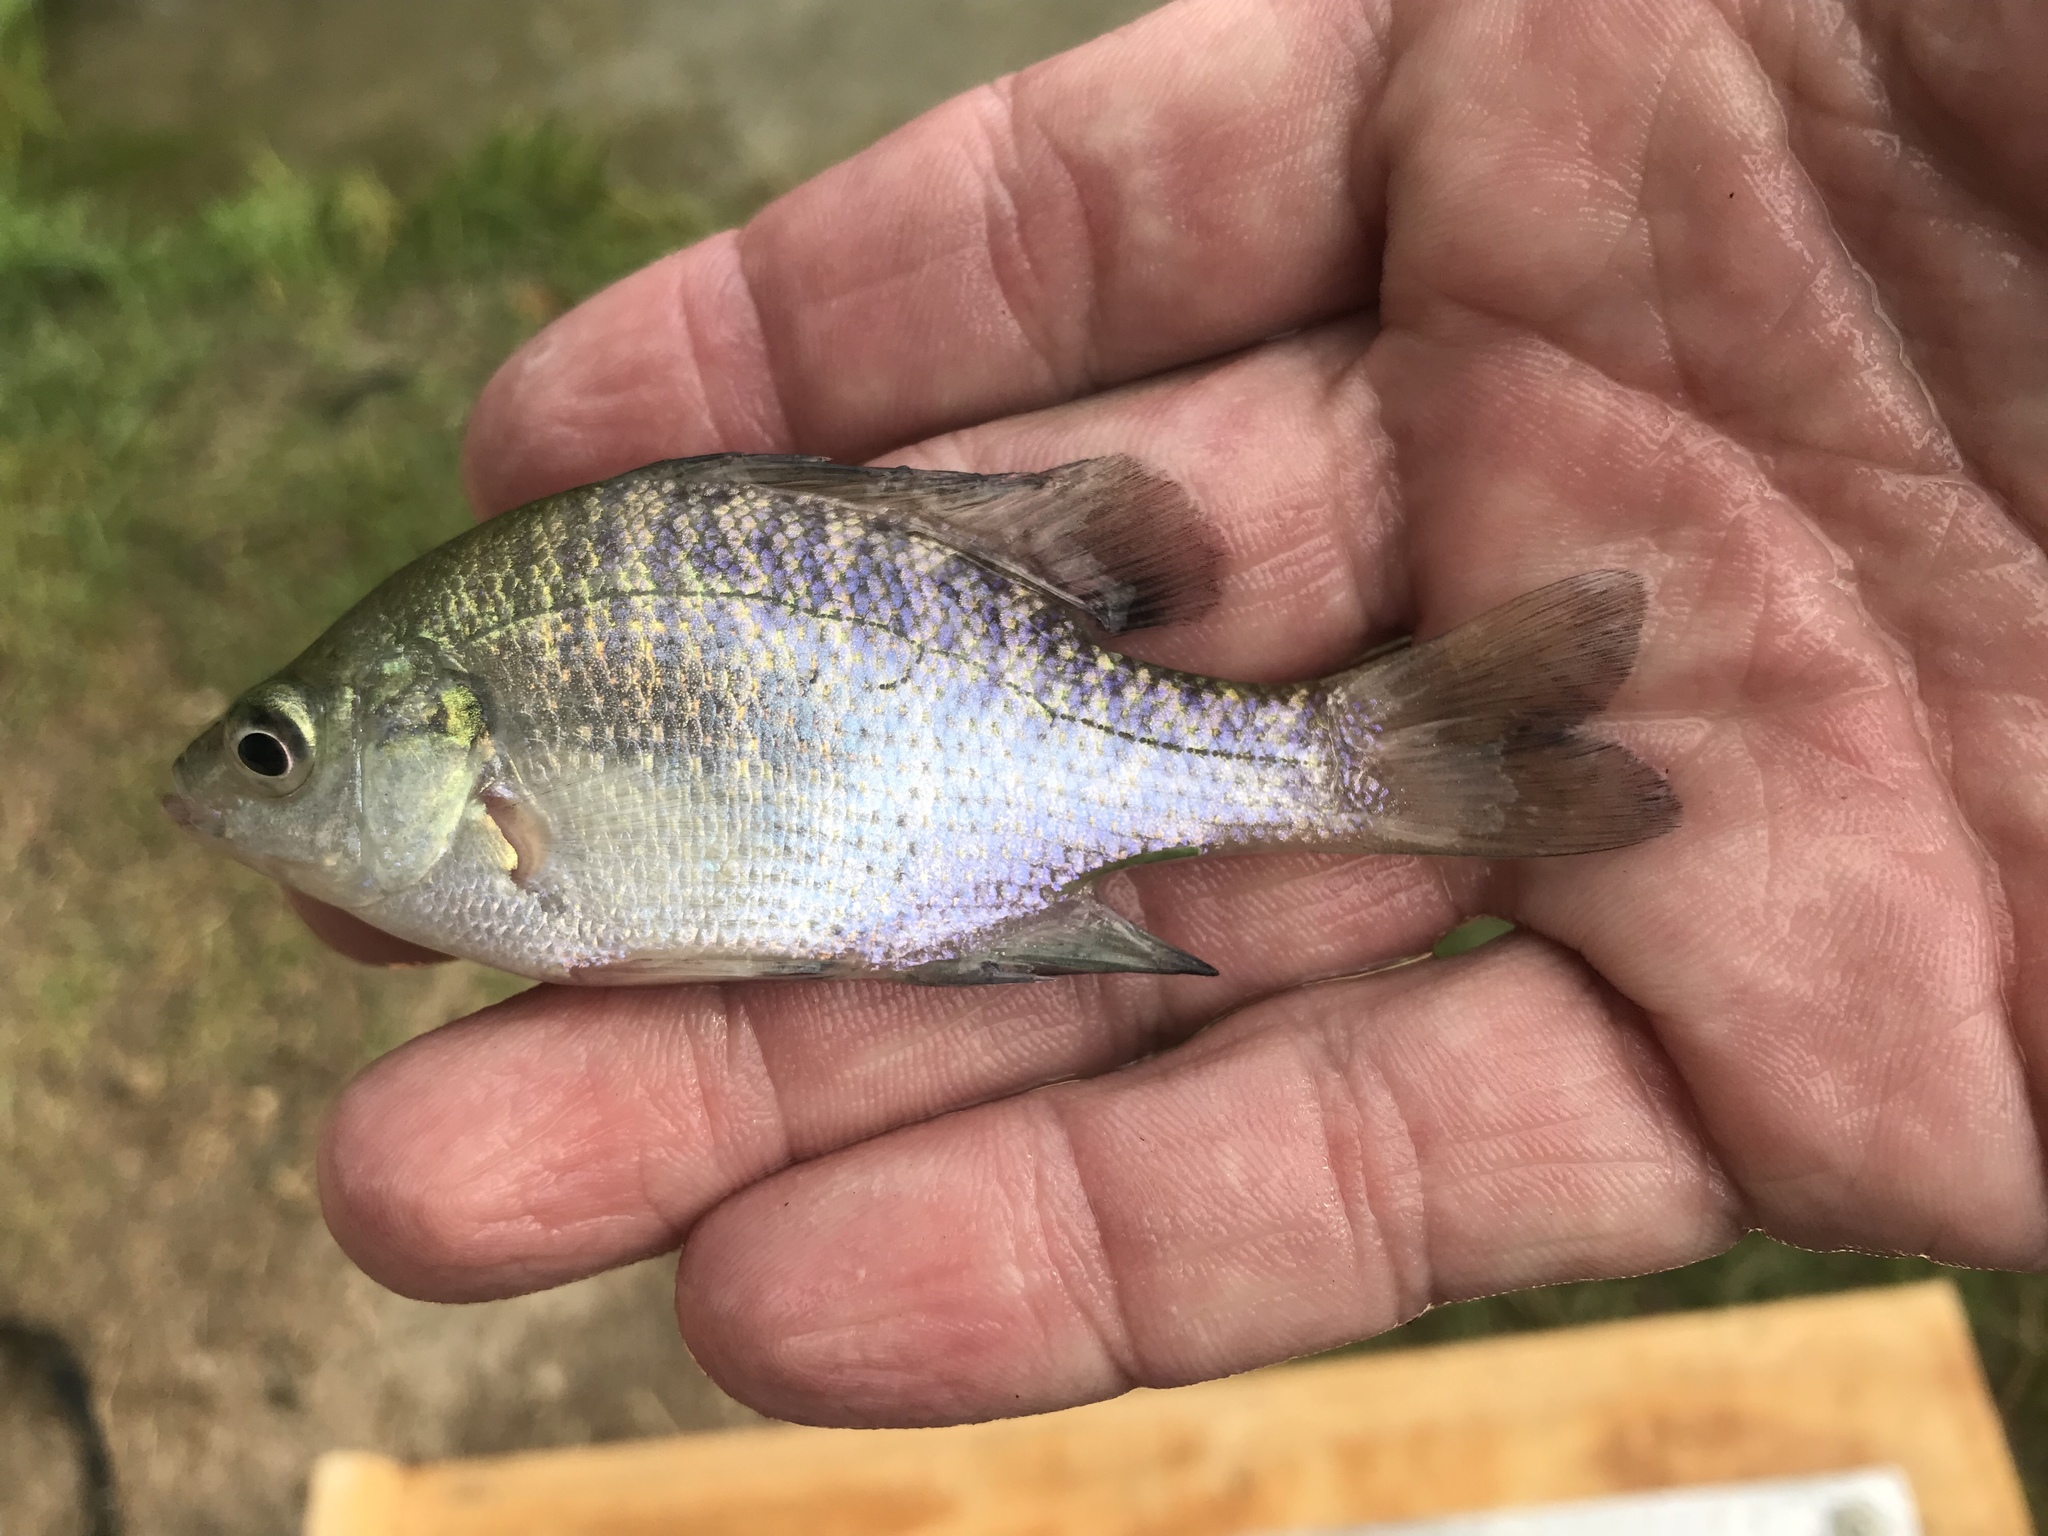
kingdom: Animalia
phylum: Chordata
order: Perciformes
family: Centrarchidae
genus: Lepomis
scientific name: Lepomis macrochirus
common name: Bluegill
